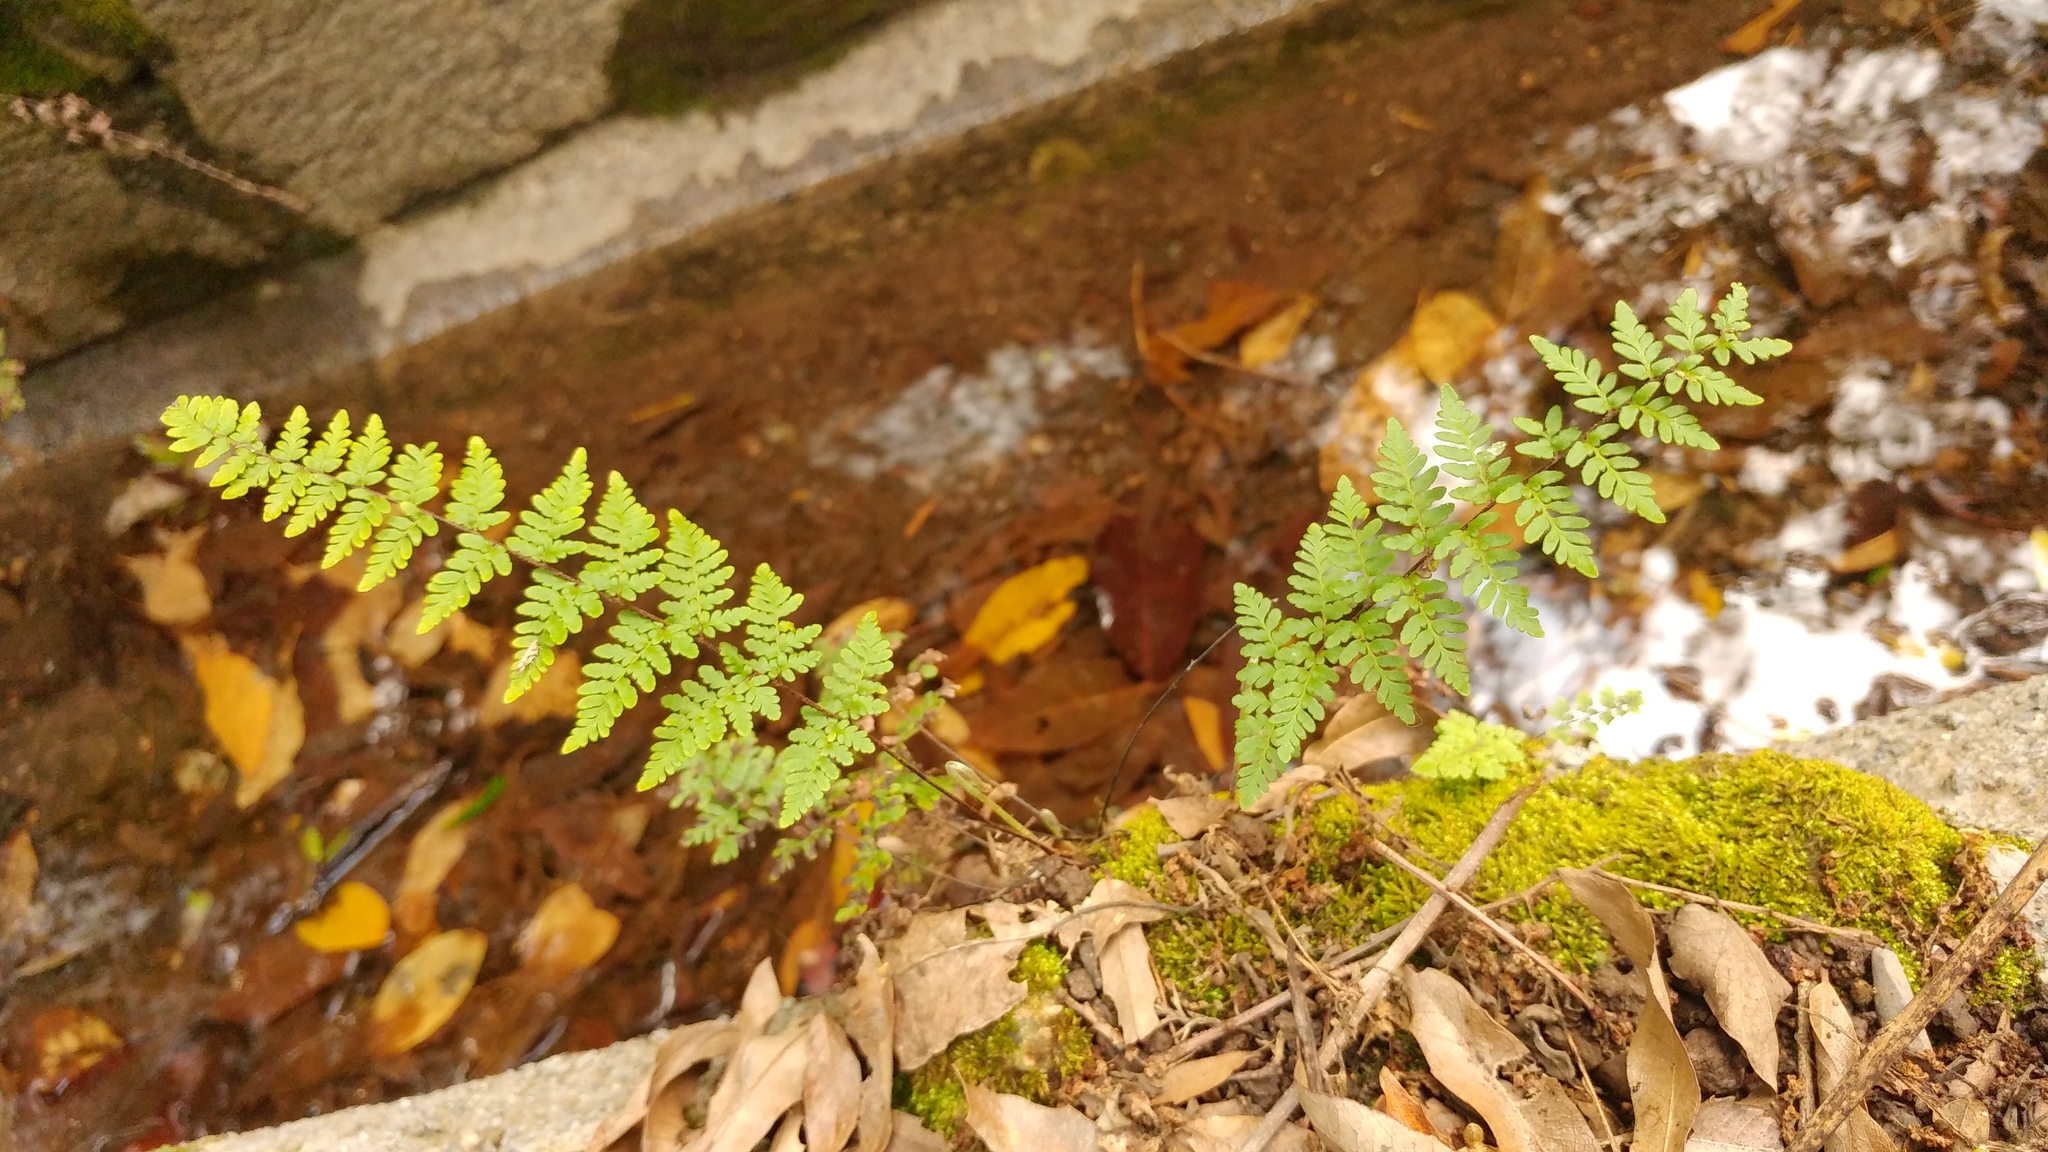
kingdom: Plantae
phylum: Tracheophyta
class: Polypodiopsida
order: Polypodiales
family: Pteridaceae
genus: Myriopteris
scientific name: Myriopteris alabamensis
